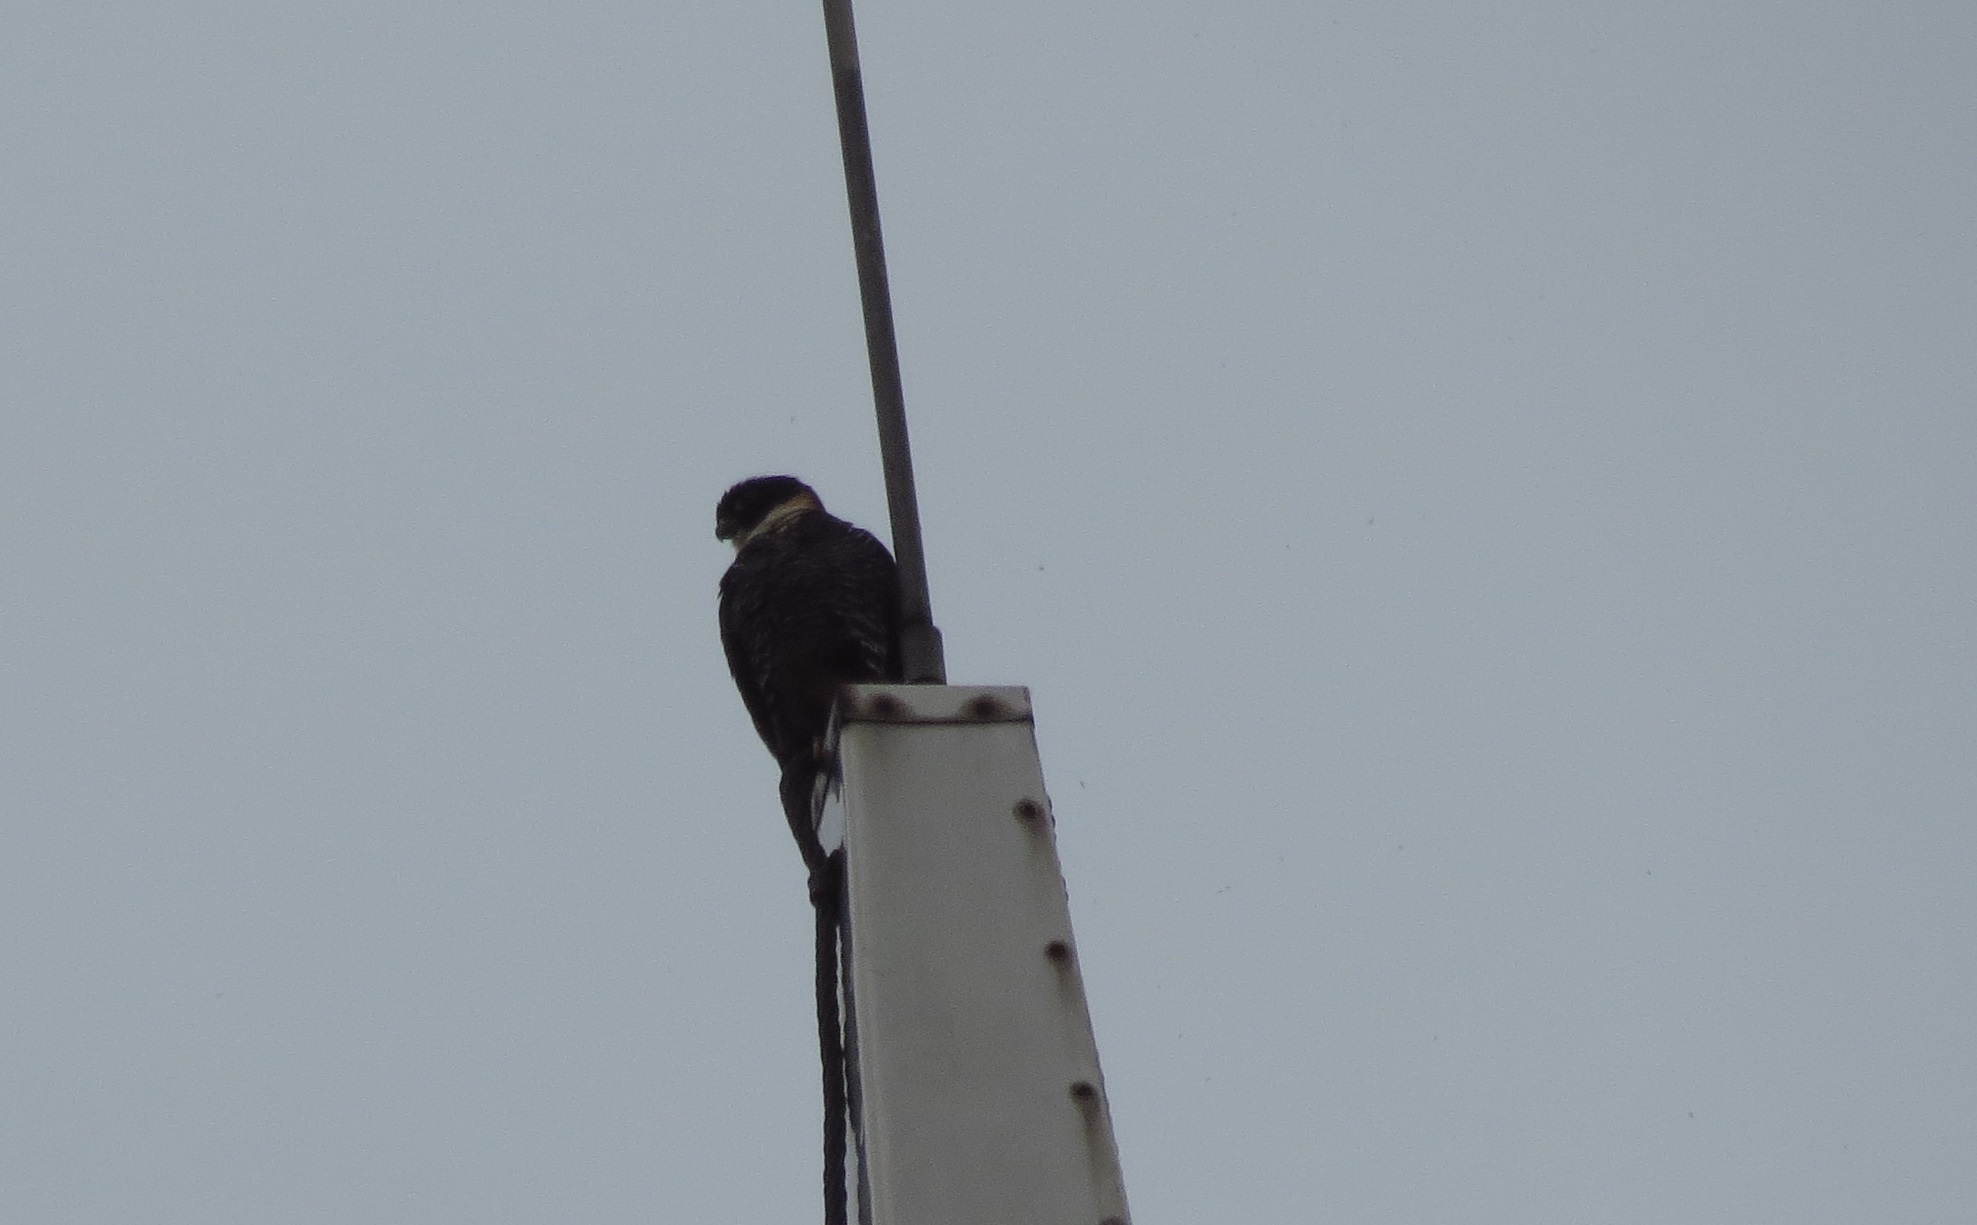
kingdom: Animalia
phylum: Chordata
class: Aves
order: Falconiformes
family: Falconidae
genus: Falco
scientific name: Falco rufigularis
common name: Bat falcon
